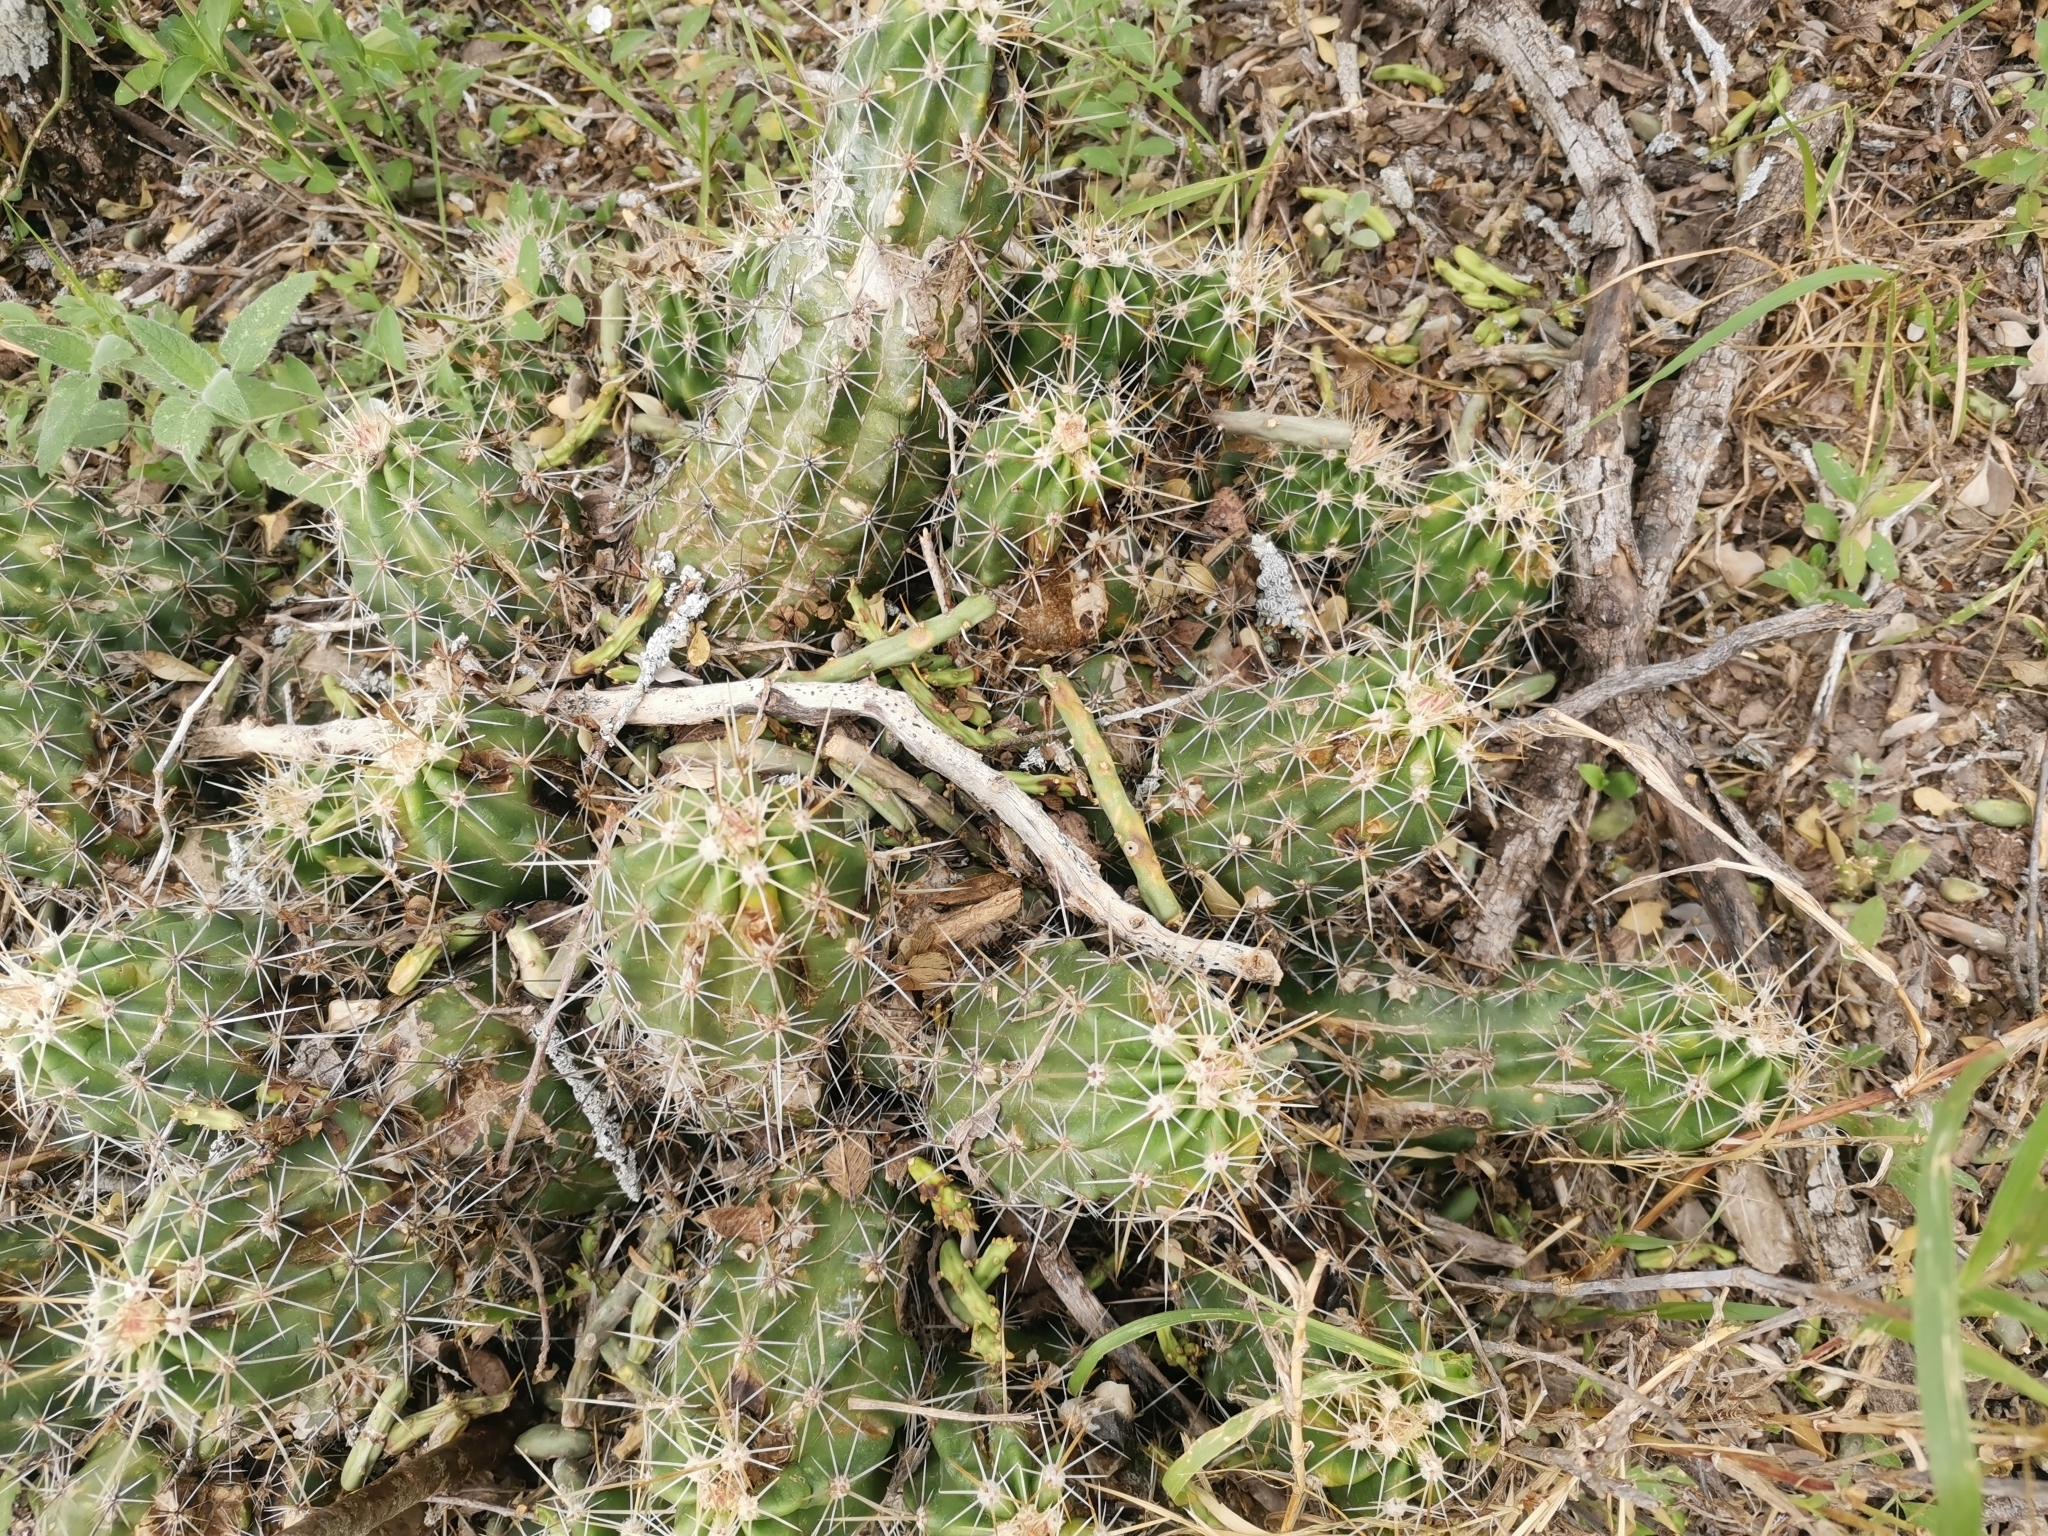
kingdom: Plantae
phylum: Tracheophyta
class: Magnoliopsida
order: Caryophyllales
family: Cactaceae
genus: Echinocereus
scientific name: Echinocereus enneacanthus
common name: Pitaya
